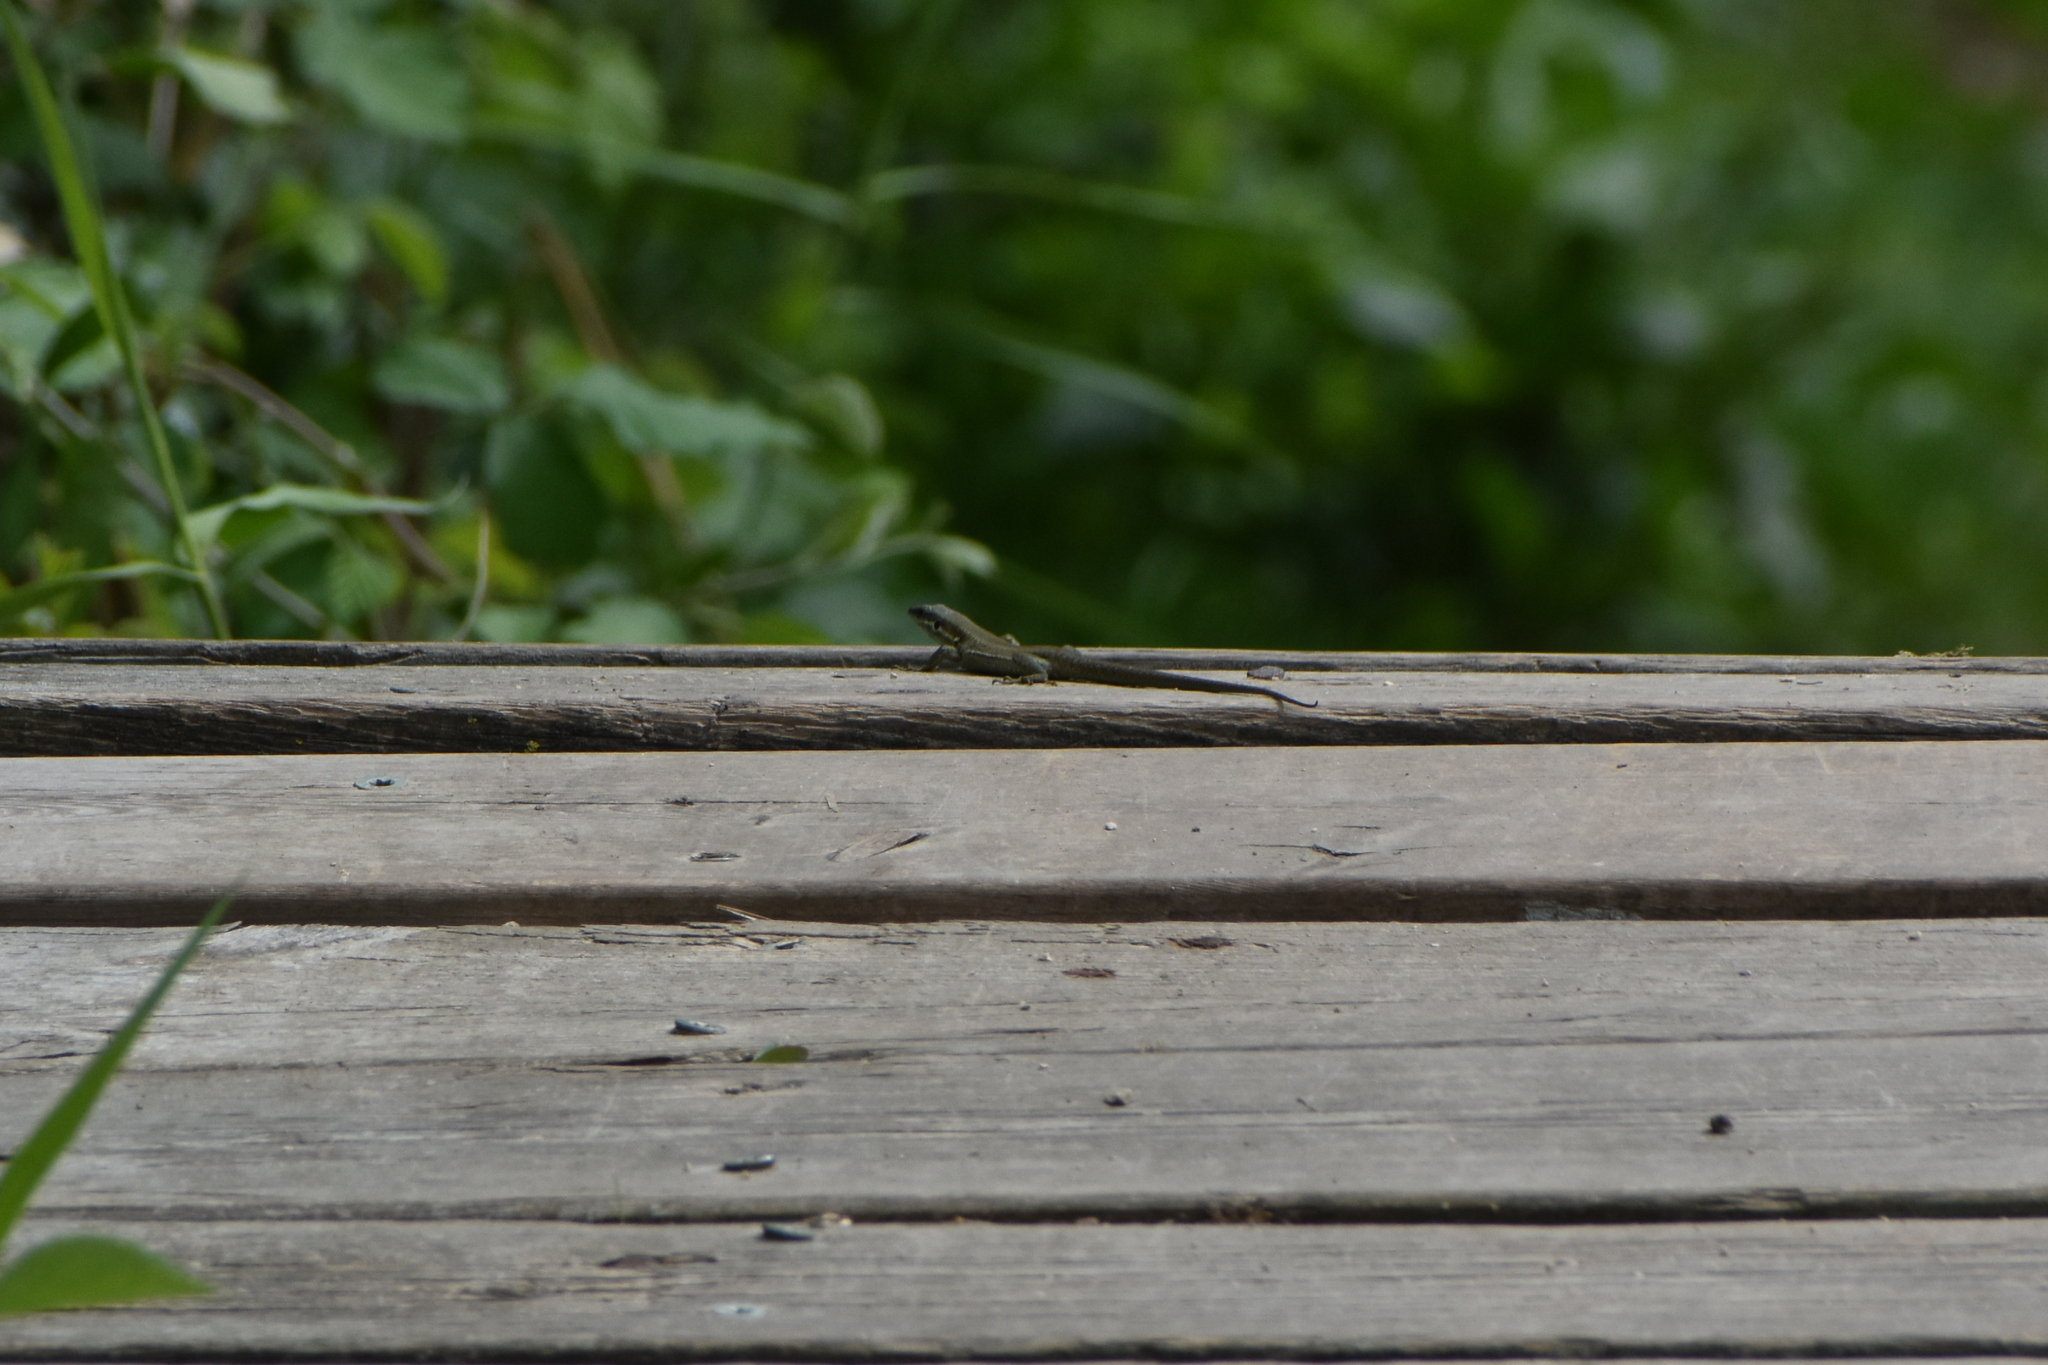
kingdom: Animalia
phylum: Chordata
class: Squamata
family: Lacertidae
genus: Phoenicolacerta
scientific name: Phoenicolacerta laevis
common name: Lebanon lizard
